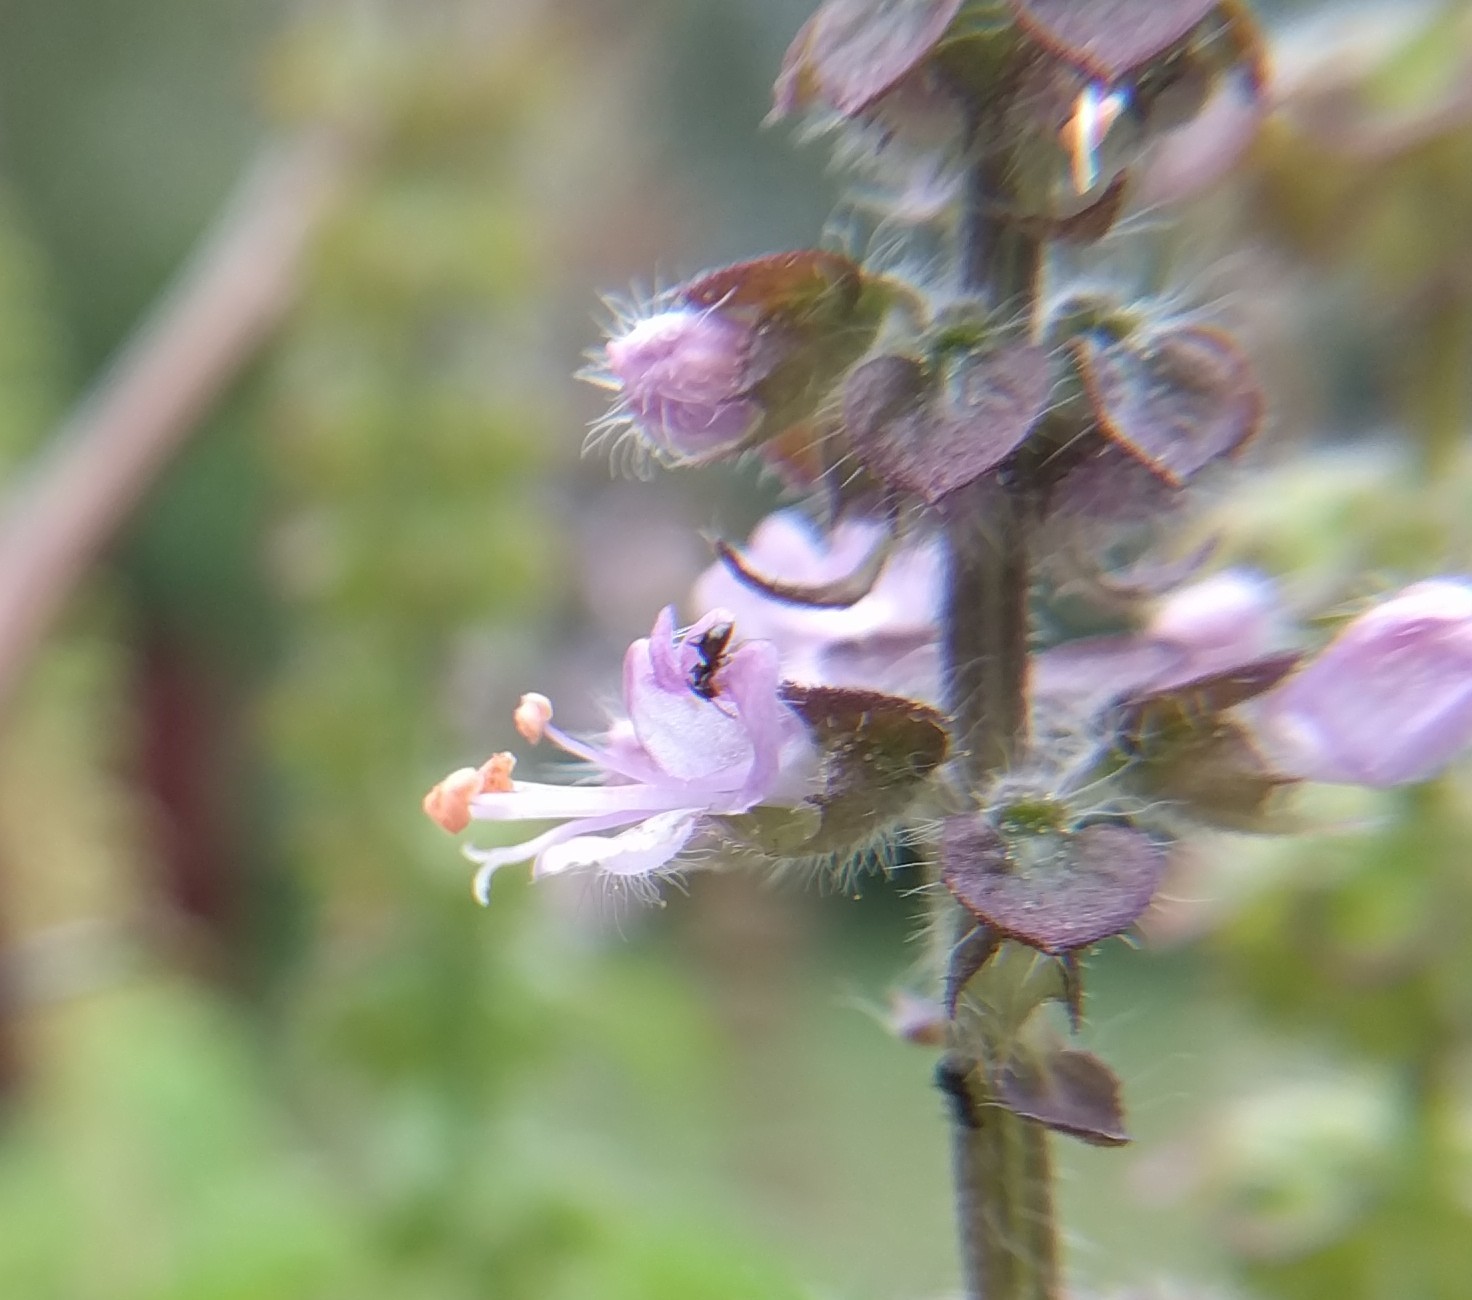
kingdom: Animalia
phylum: Arthropoda
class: Insecta
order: Hymenoptera
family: Formicidae
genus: Brachymyrmex
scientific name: Brachymyrmex patagonicus
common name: Dark rover ant
